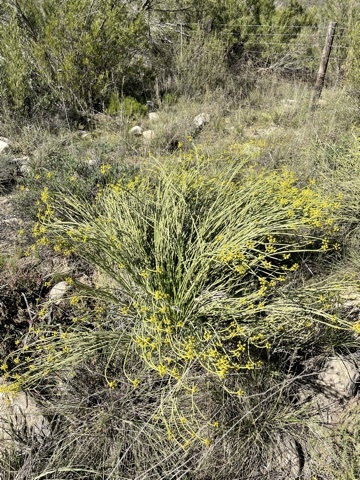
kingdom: Plantae
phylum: Tracheophyta
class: Magnoliopsida
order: Malpighiales
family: Euphorbiaceae
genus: Euphorbia
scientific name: Euphorbia mauritanica
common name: Jackal's-food
